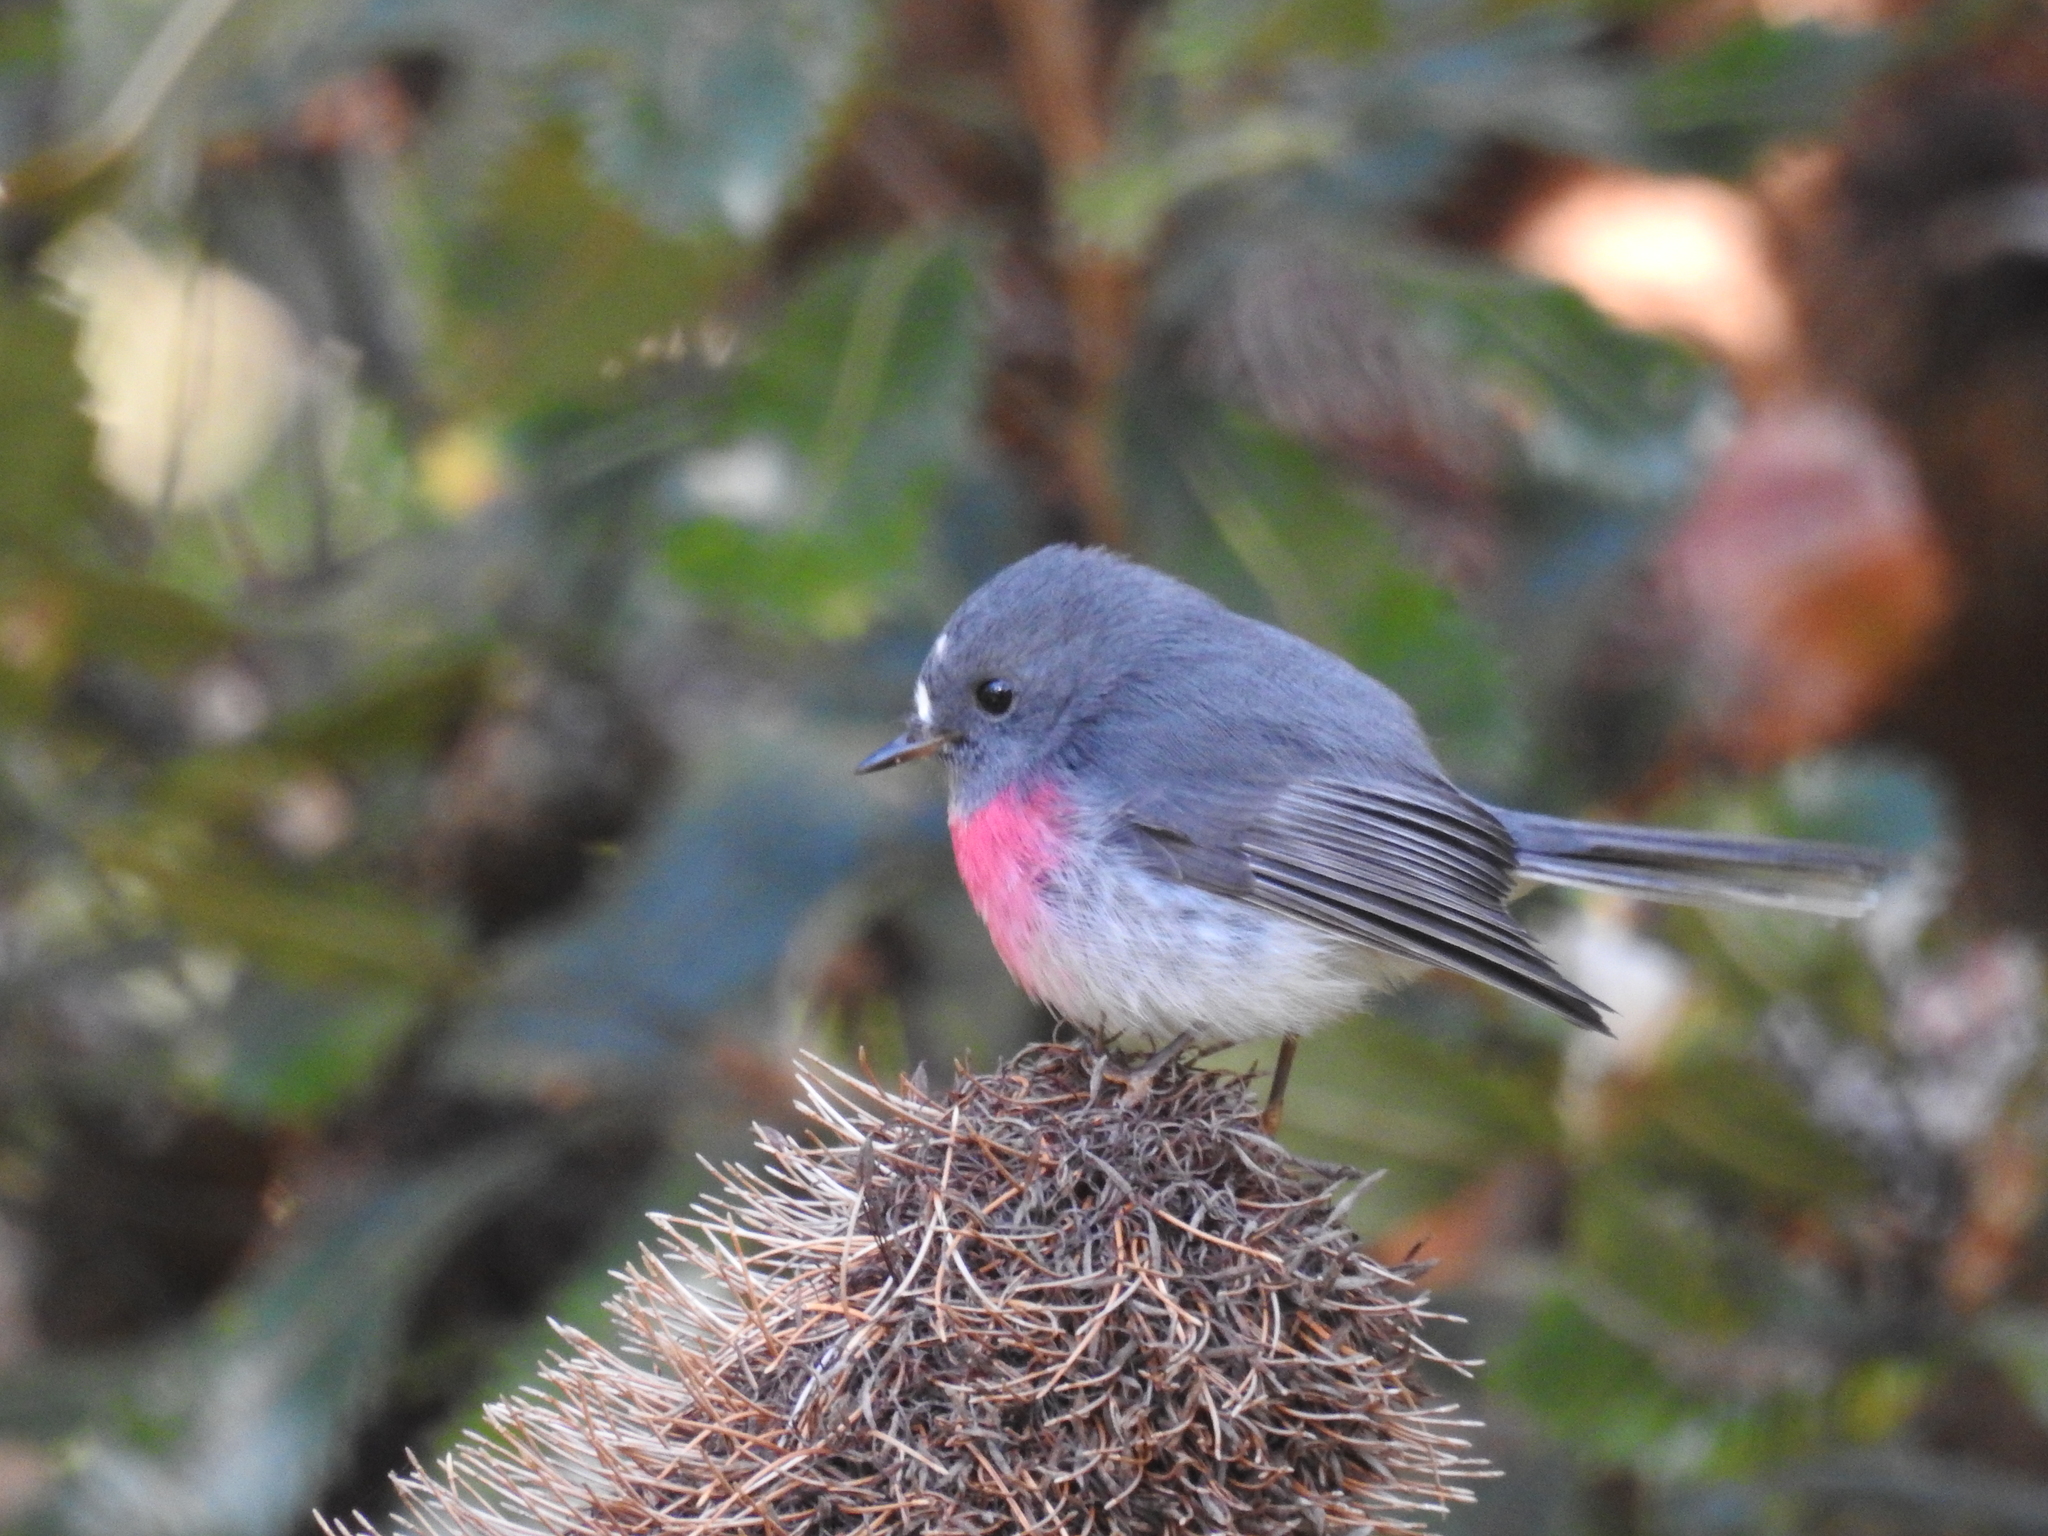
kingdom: Animalia
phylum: Chordata
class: Aves
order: Passeriformes
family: Petroicidae
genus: Petroica
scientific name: Petroica rosea
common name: Rose robin
